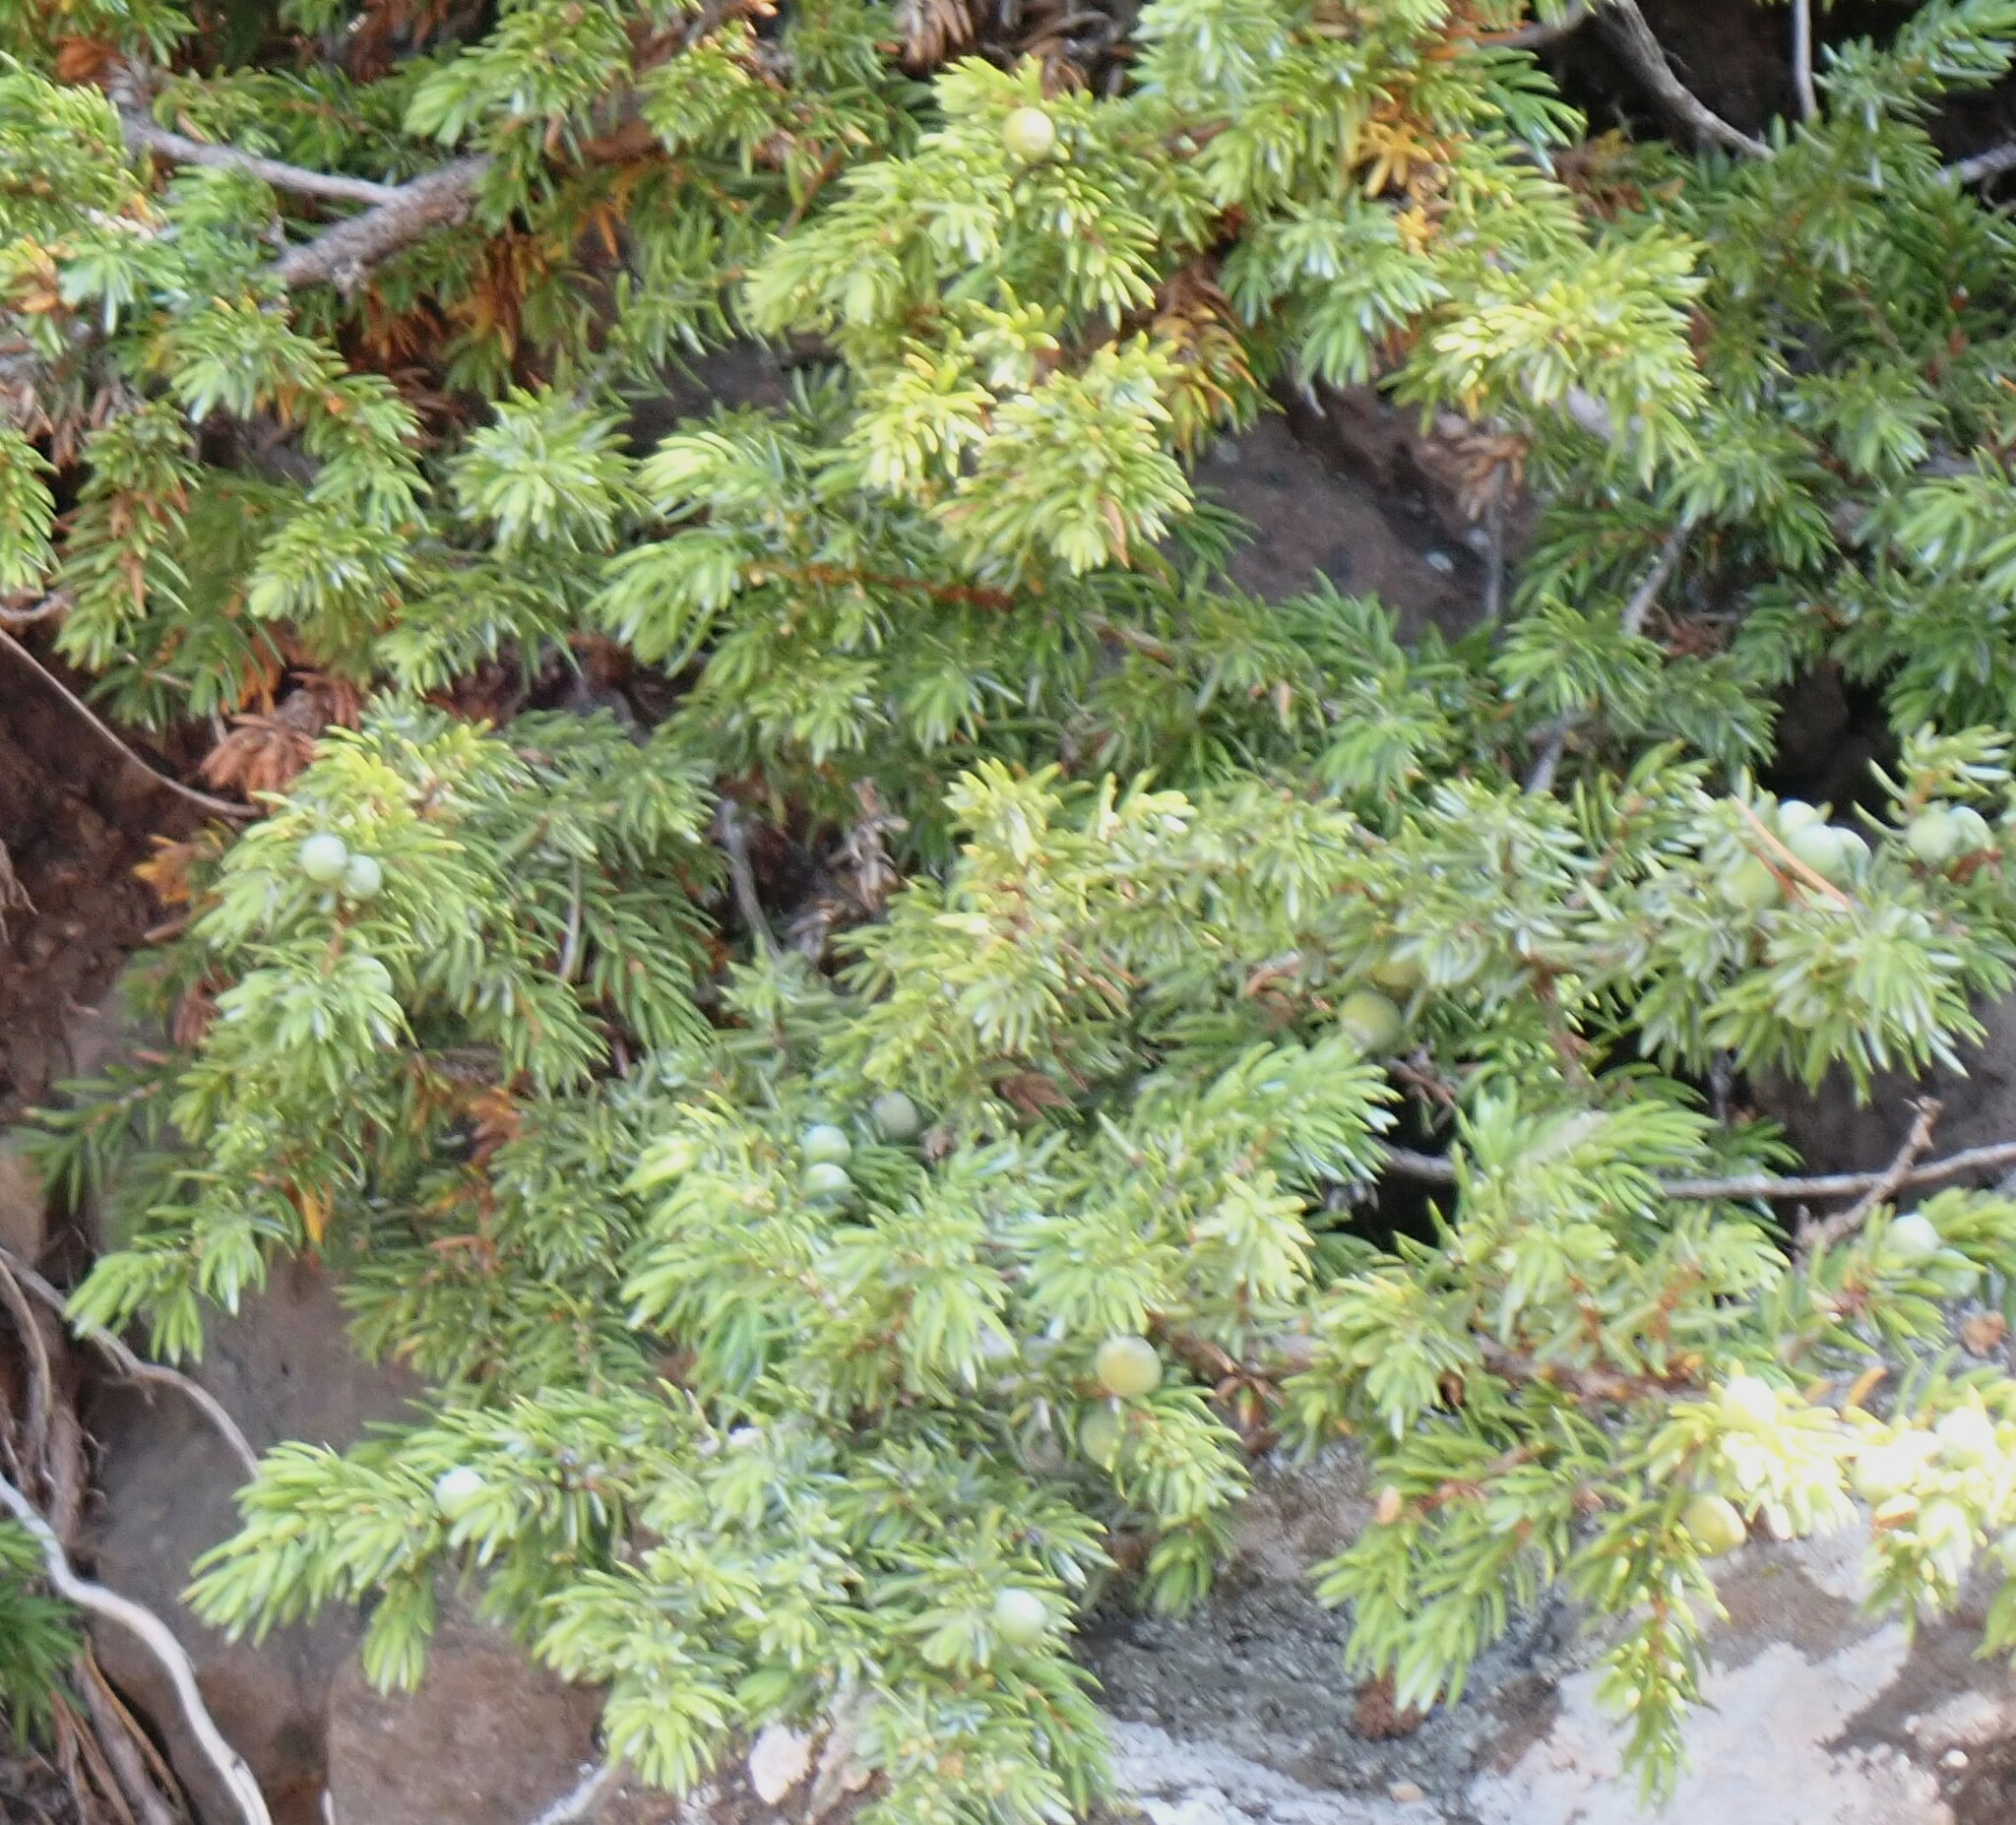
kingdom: Plantae
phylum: Tracheophyta
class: Pinopsida
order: Pinales
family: Cupressaceae
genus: Juniperus
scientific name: Juniperus communis
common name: Common juniper
